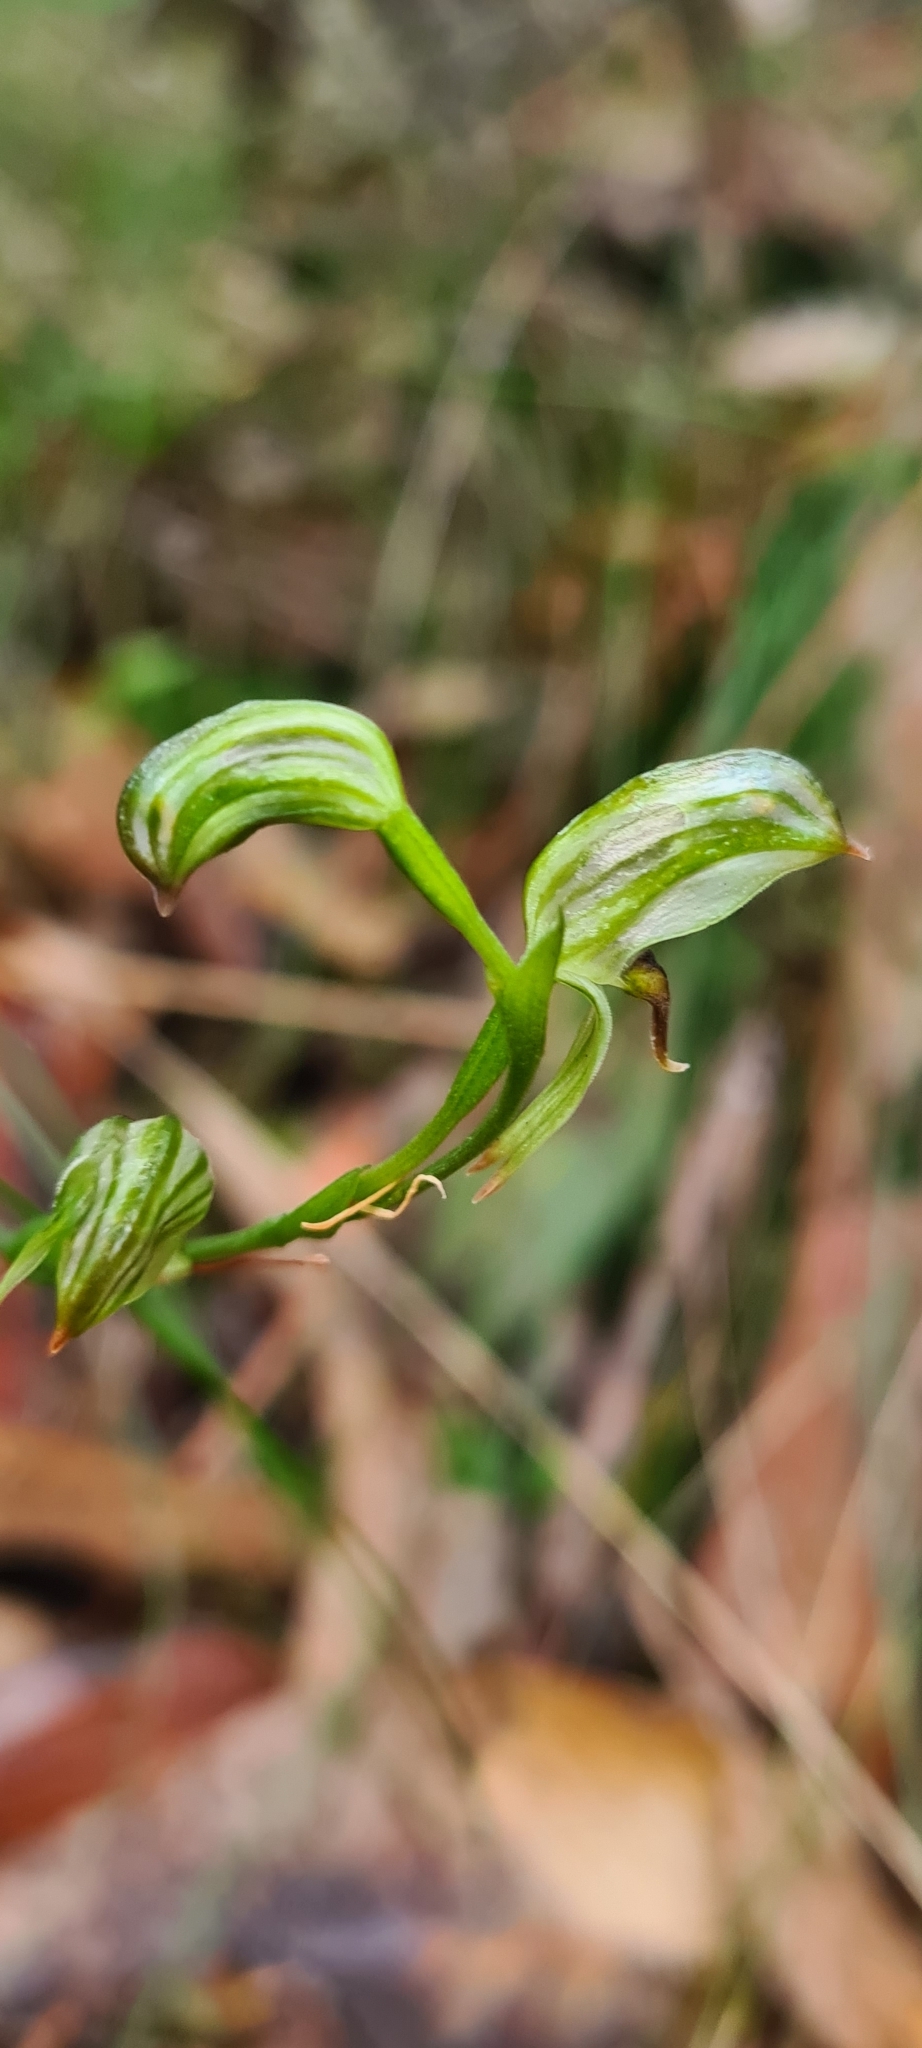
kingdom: Plantae
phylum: Tracheophyta
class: Liliopsida
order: Asparagales
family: Orchidaceae
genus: Pterostylis
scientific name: Pterostylis tunstallii
